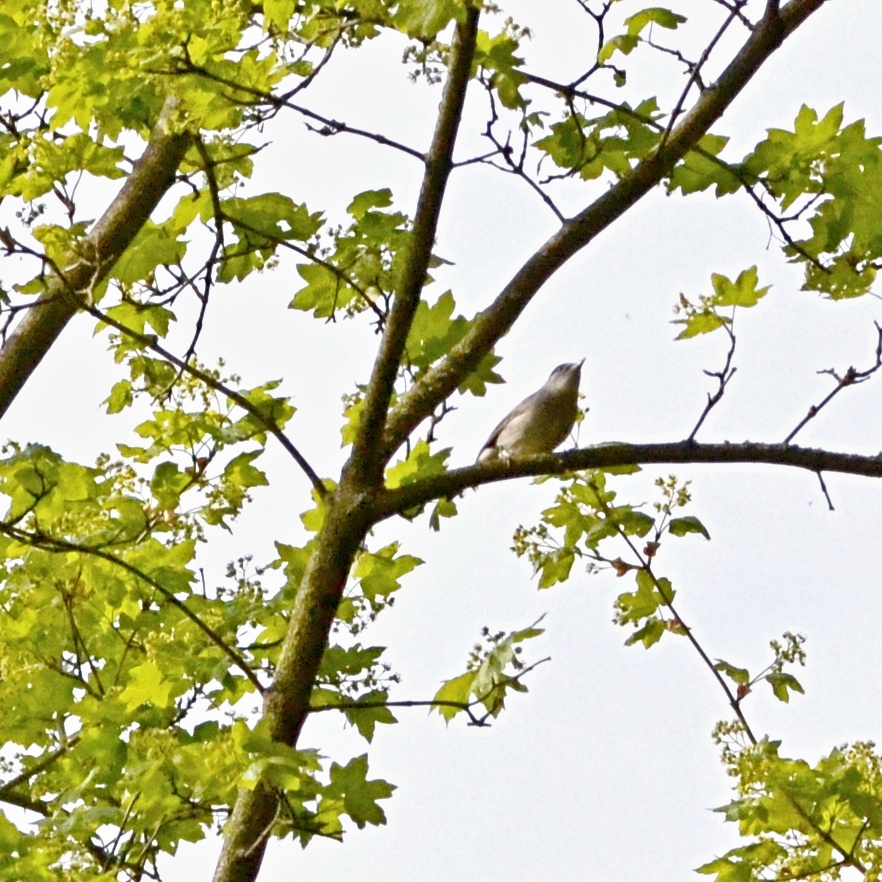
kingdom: Animalia
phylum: Chordata
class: Aves
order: Passeriformes
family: Sylviidae
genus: Sylvia
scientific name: Sylvia atricapilla
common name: Eurasian blackcap
